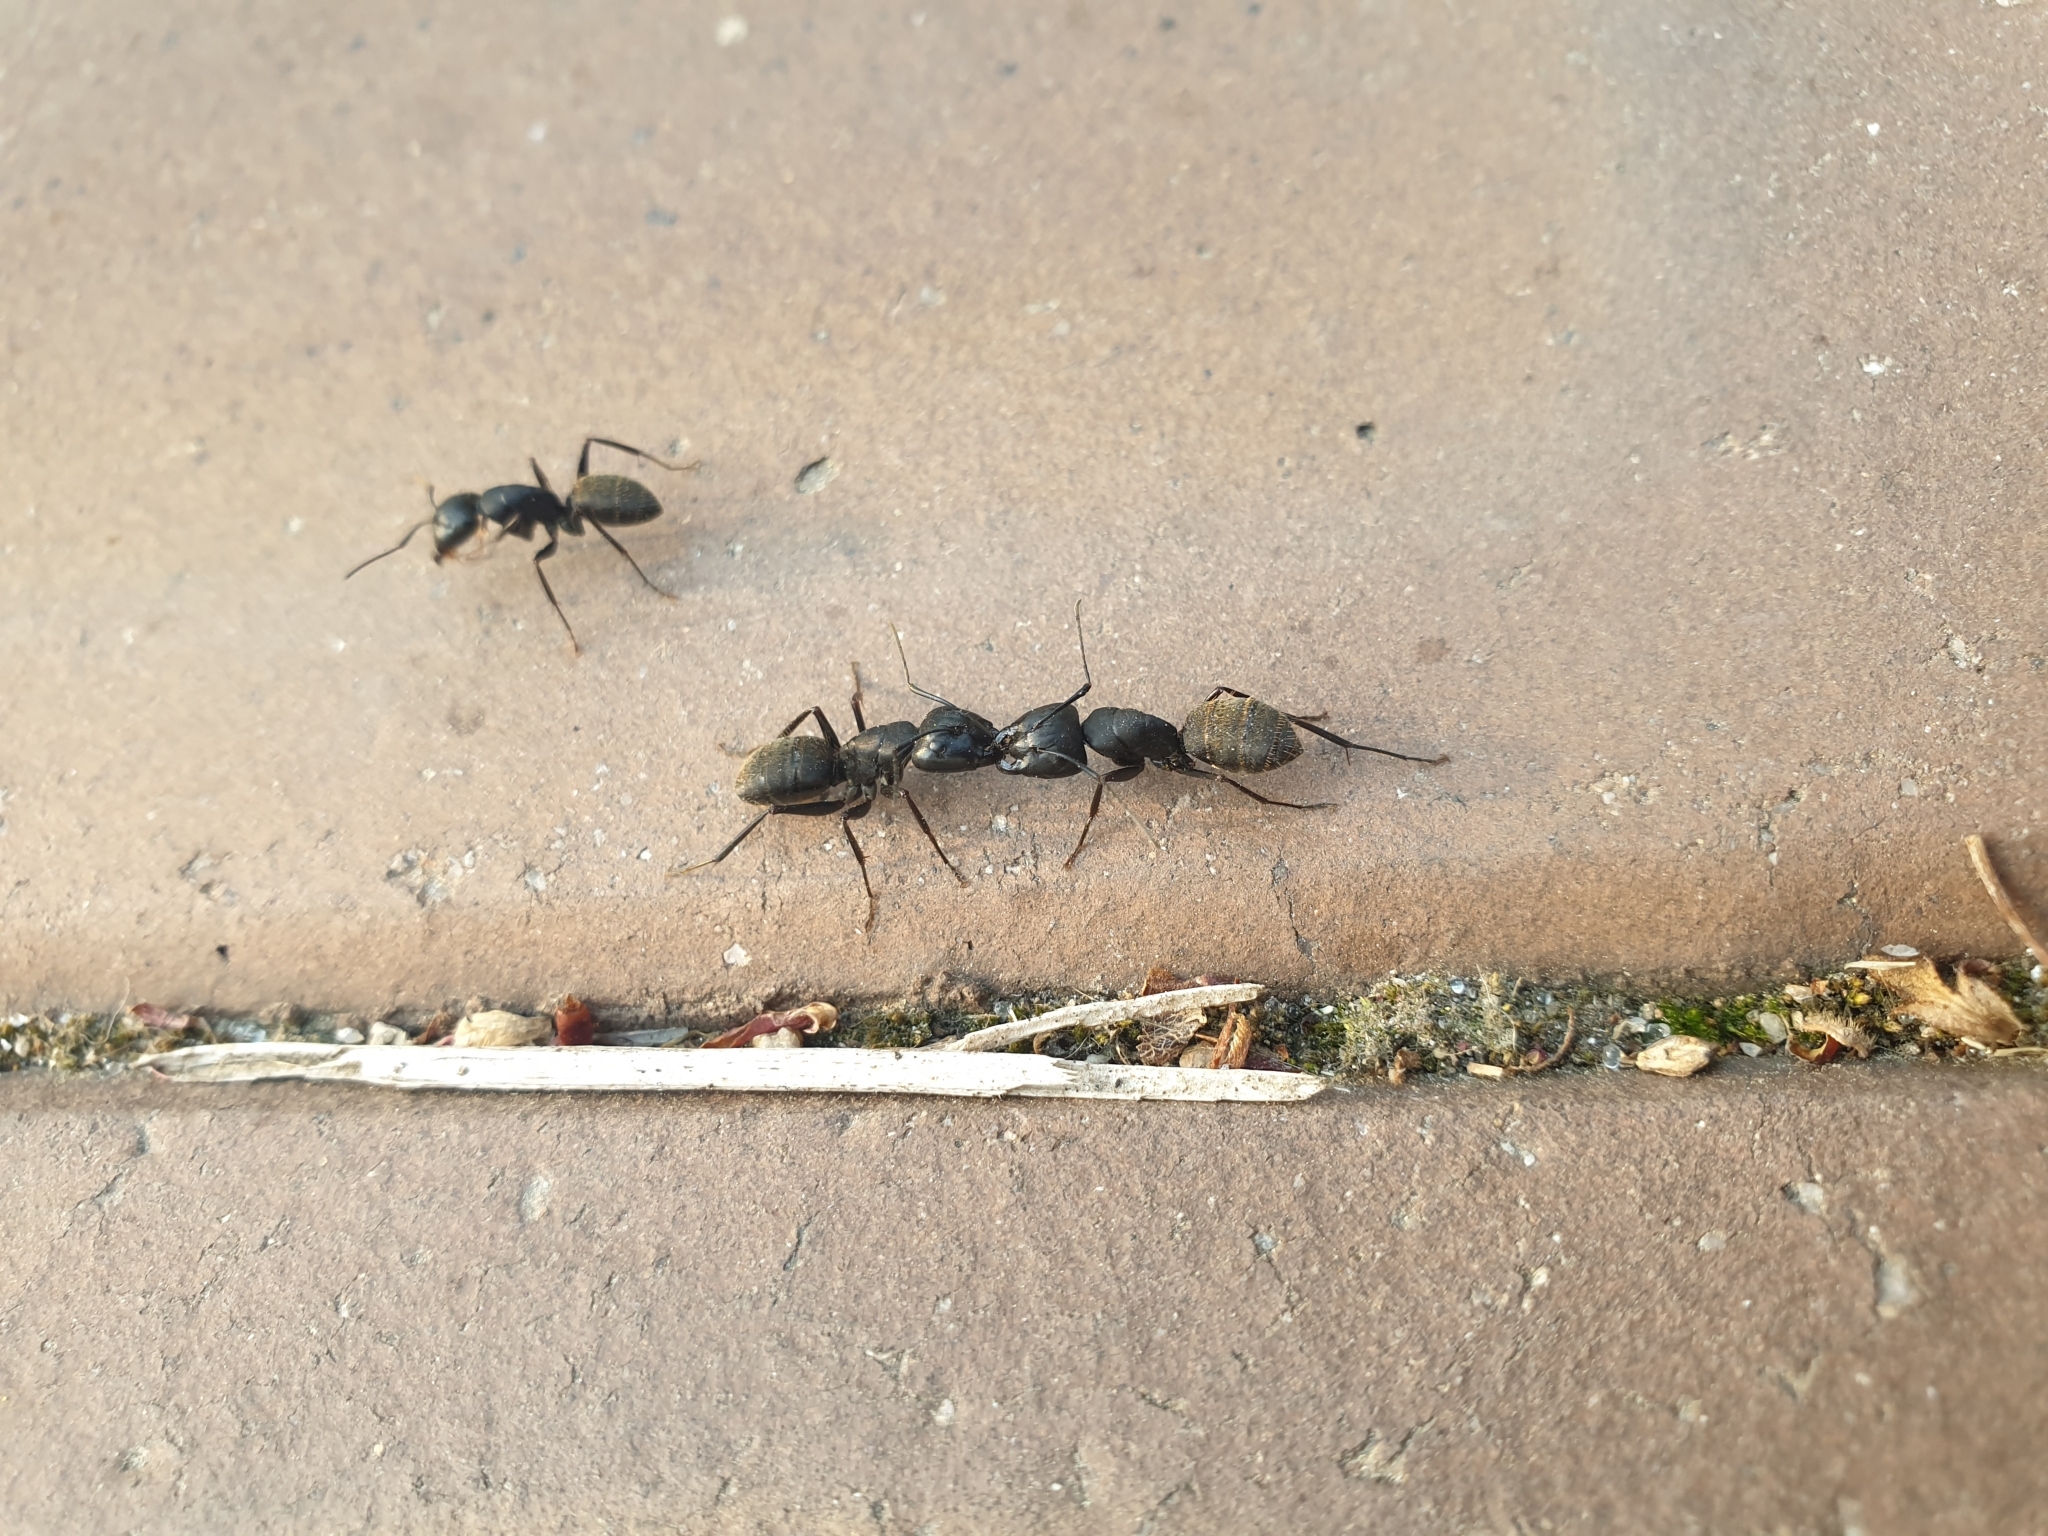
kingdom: Animalia
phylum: Arthropoda
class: Insecta
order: Hymenoptera
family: Formicidae
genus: Camponotus
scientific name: Camponotus japonicus
